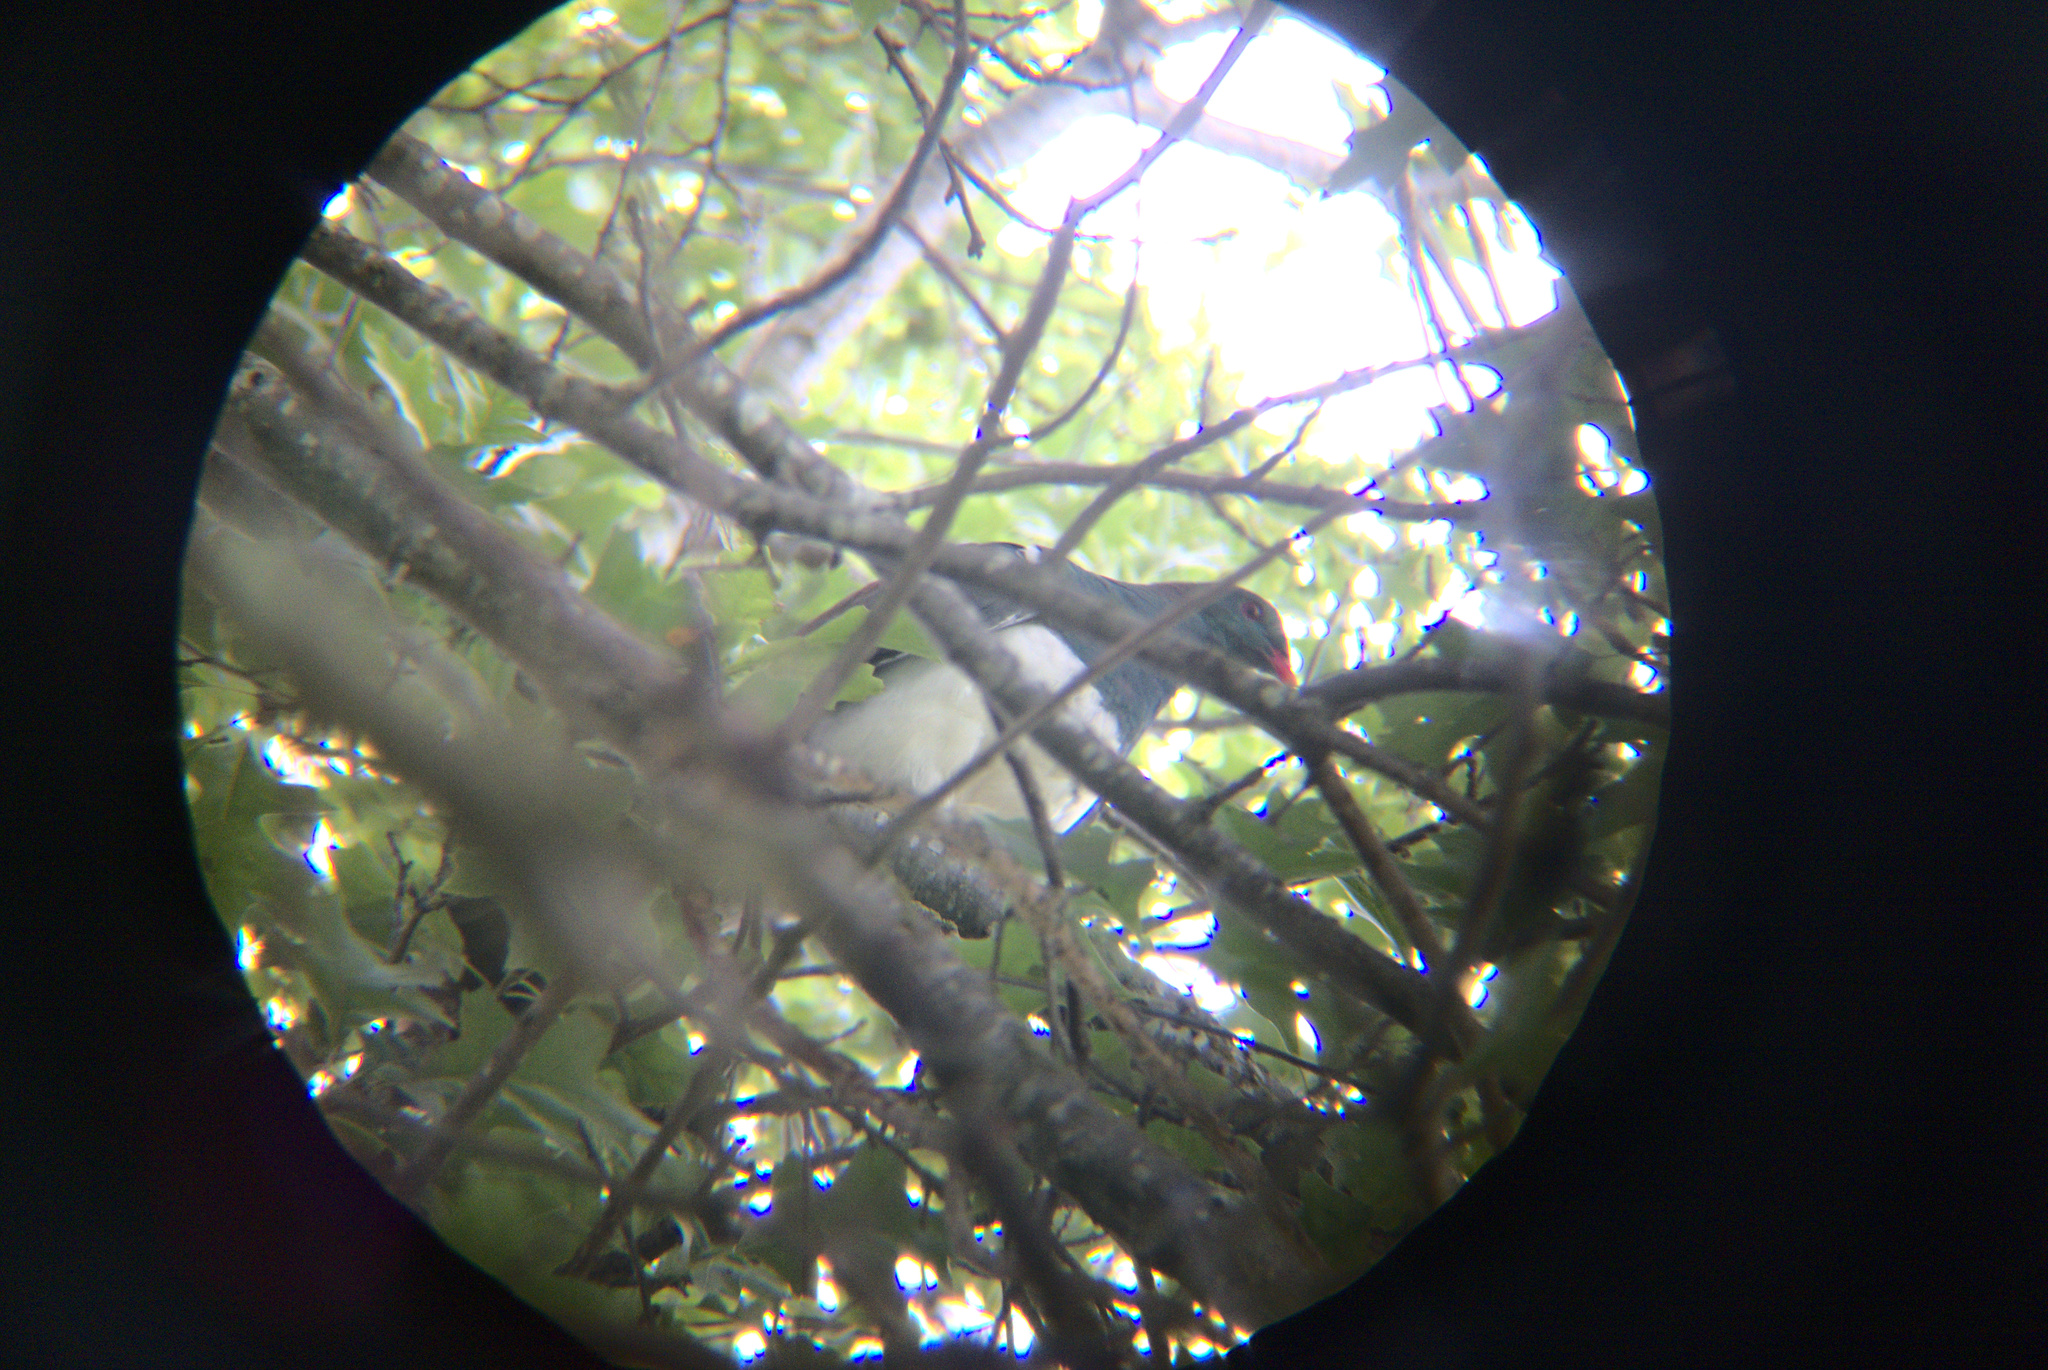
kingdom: Animalia
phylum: Chordata
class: Aves
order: Columbiformes
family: Columbidae
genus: Hemiphaga
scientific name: Hemiphaga novaeseelandiae
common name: New zealand pigeon
